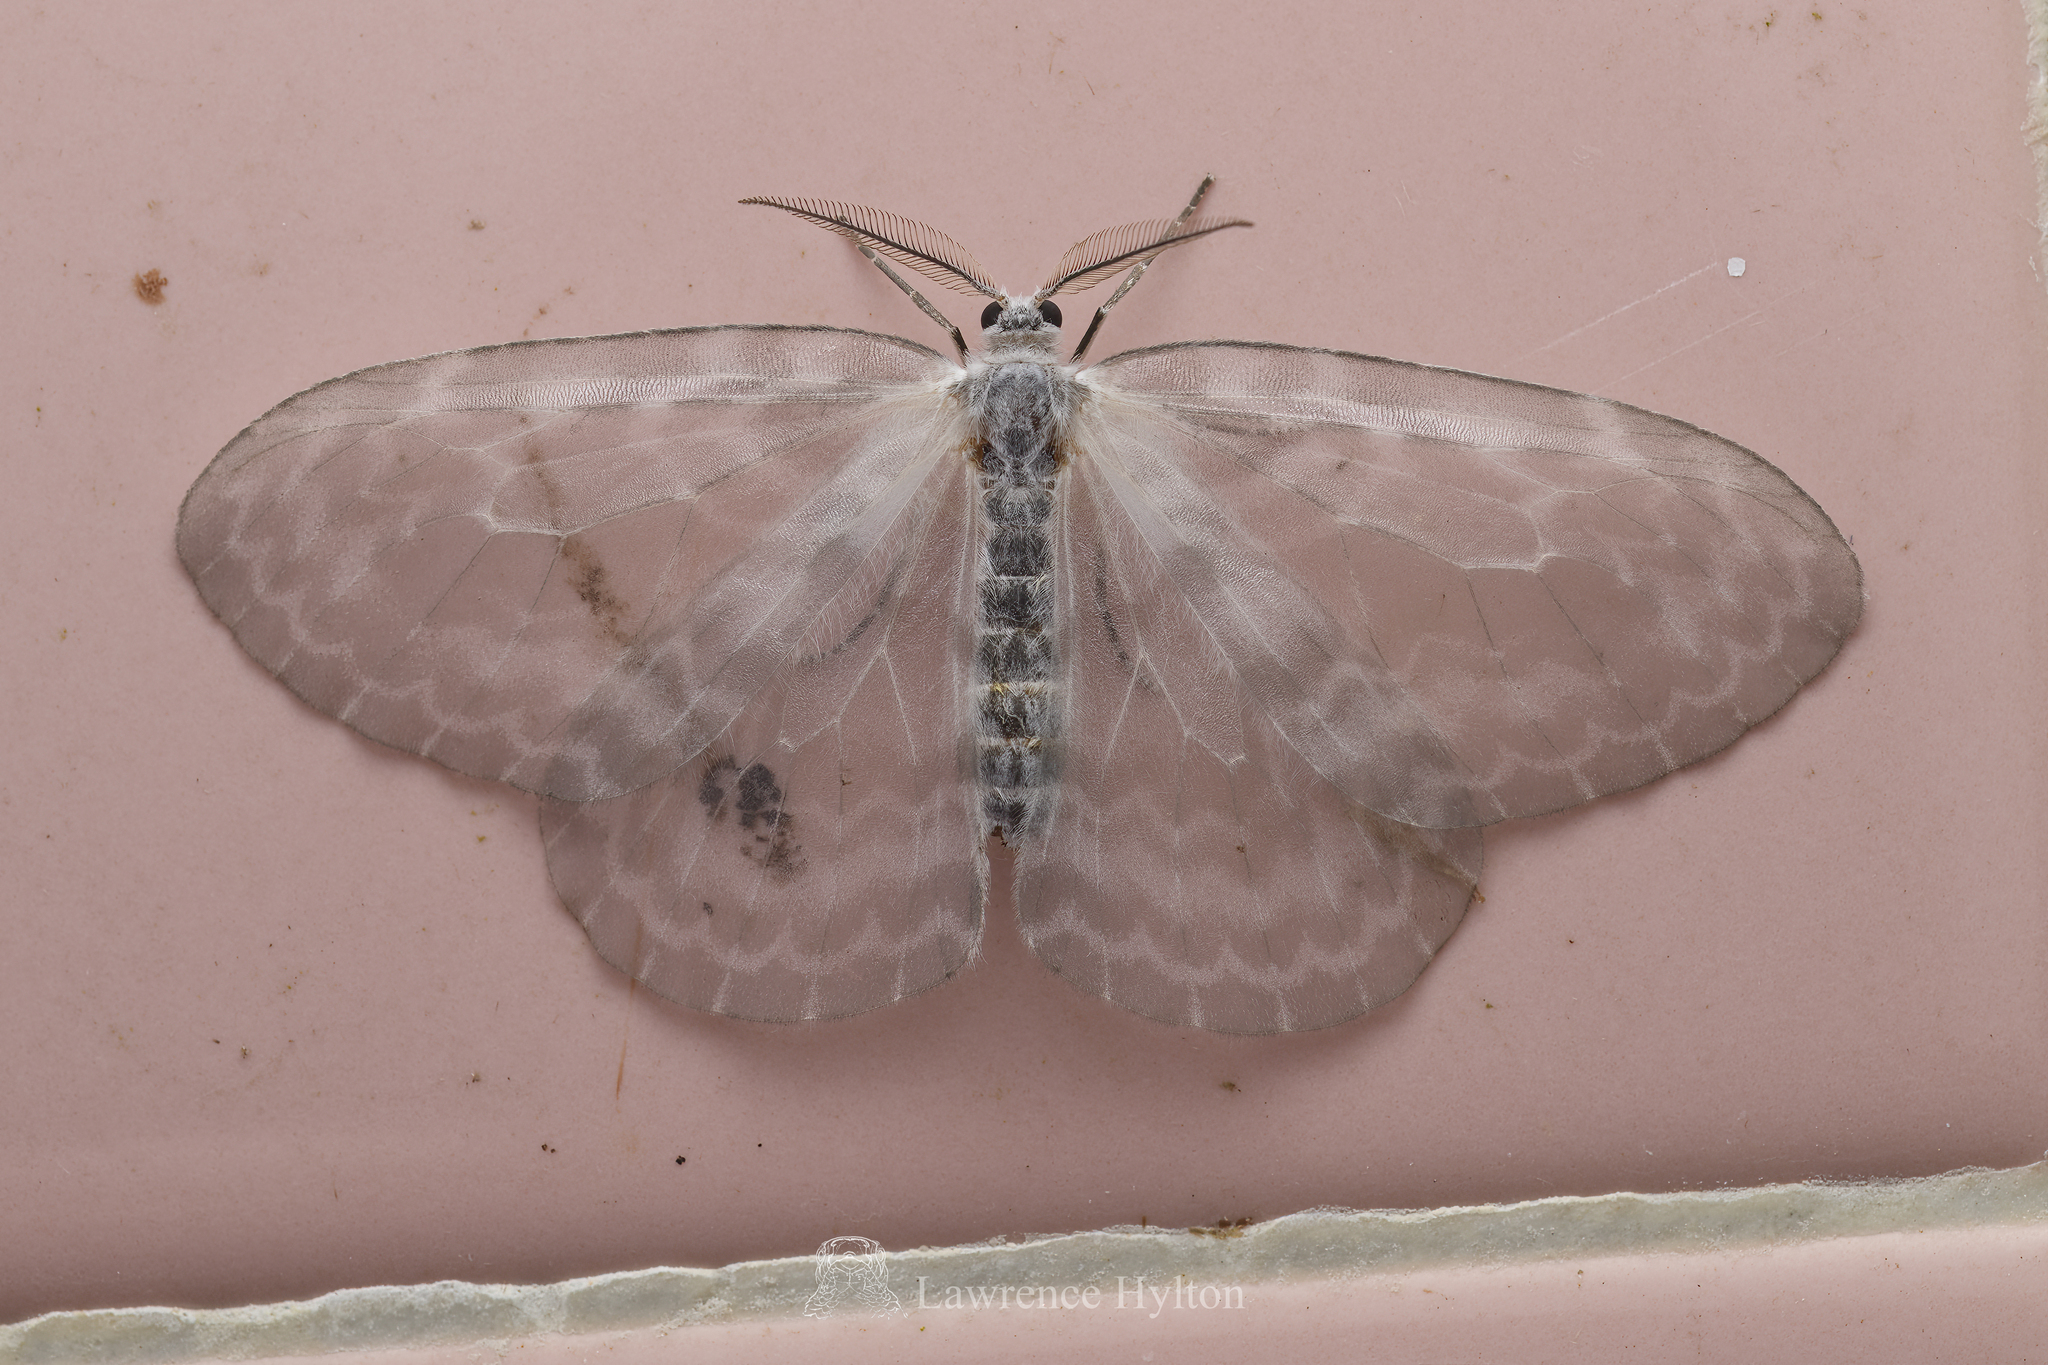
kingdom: Animalia
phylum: Arthropoda
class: Insecta
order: Lepidoptera
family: Drepanidae
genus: Deroca
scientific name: Deroca hyalina
